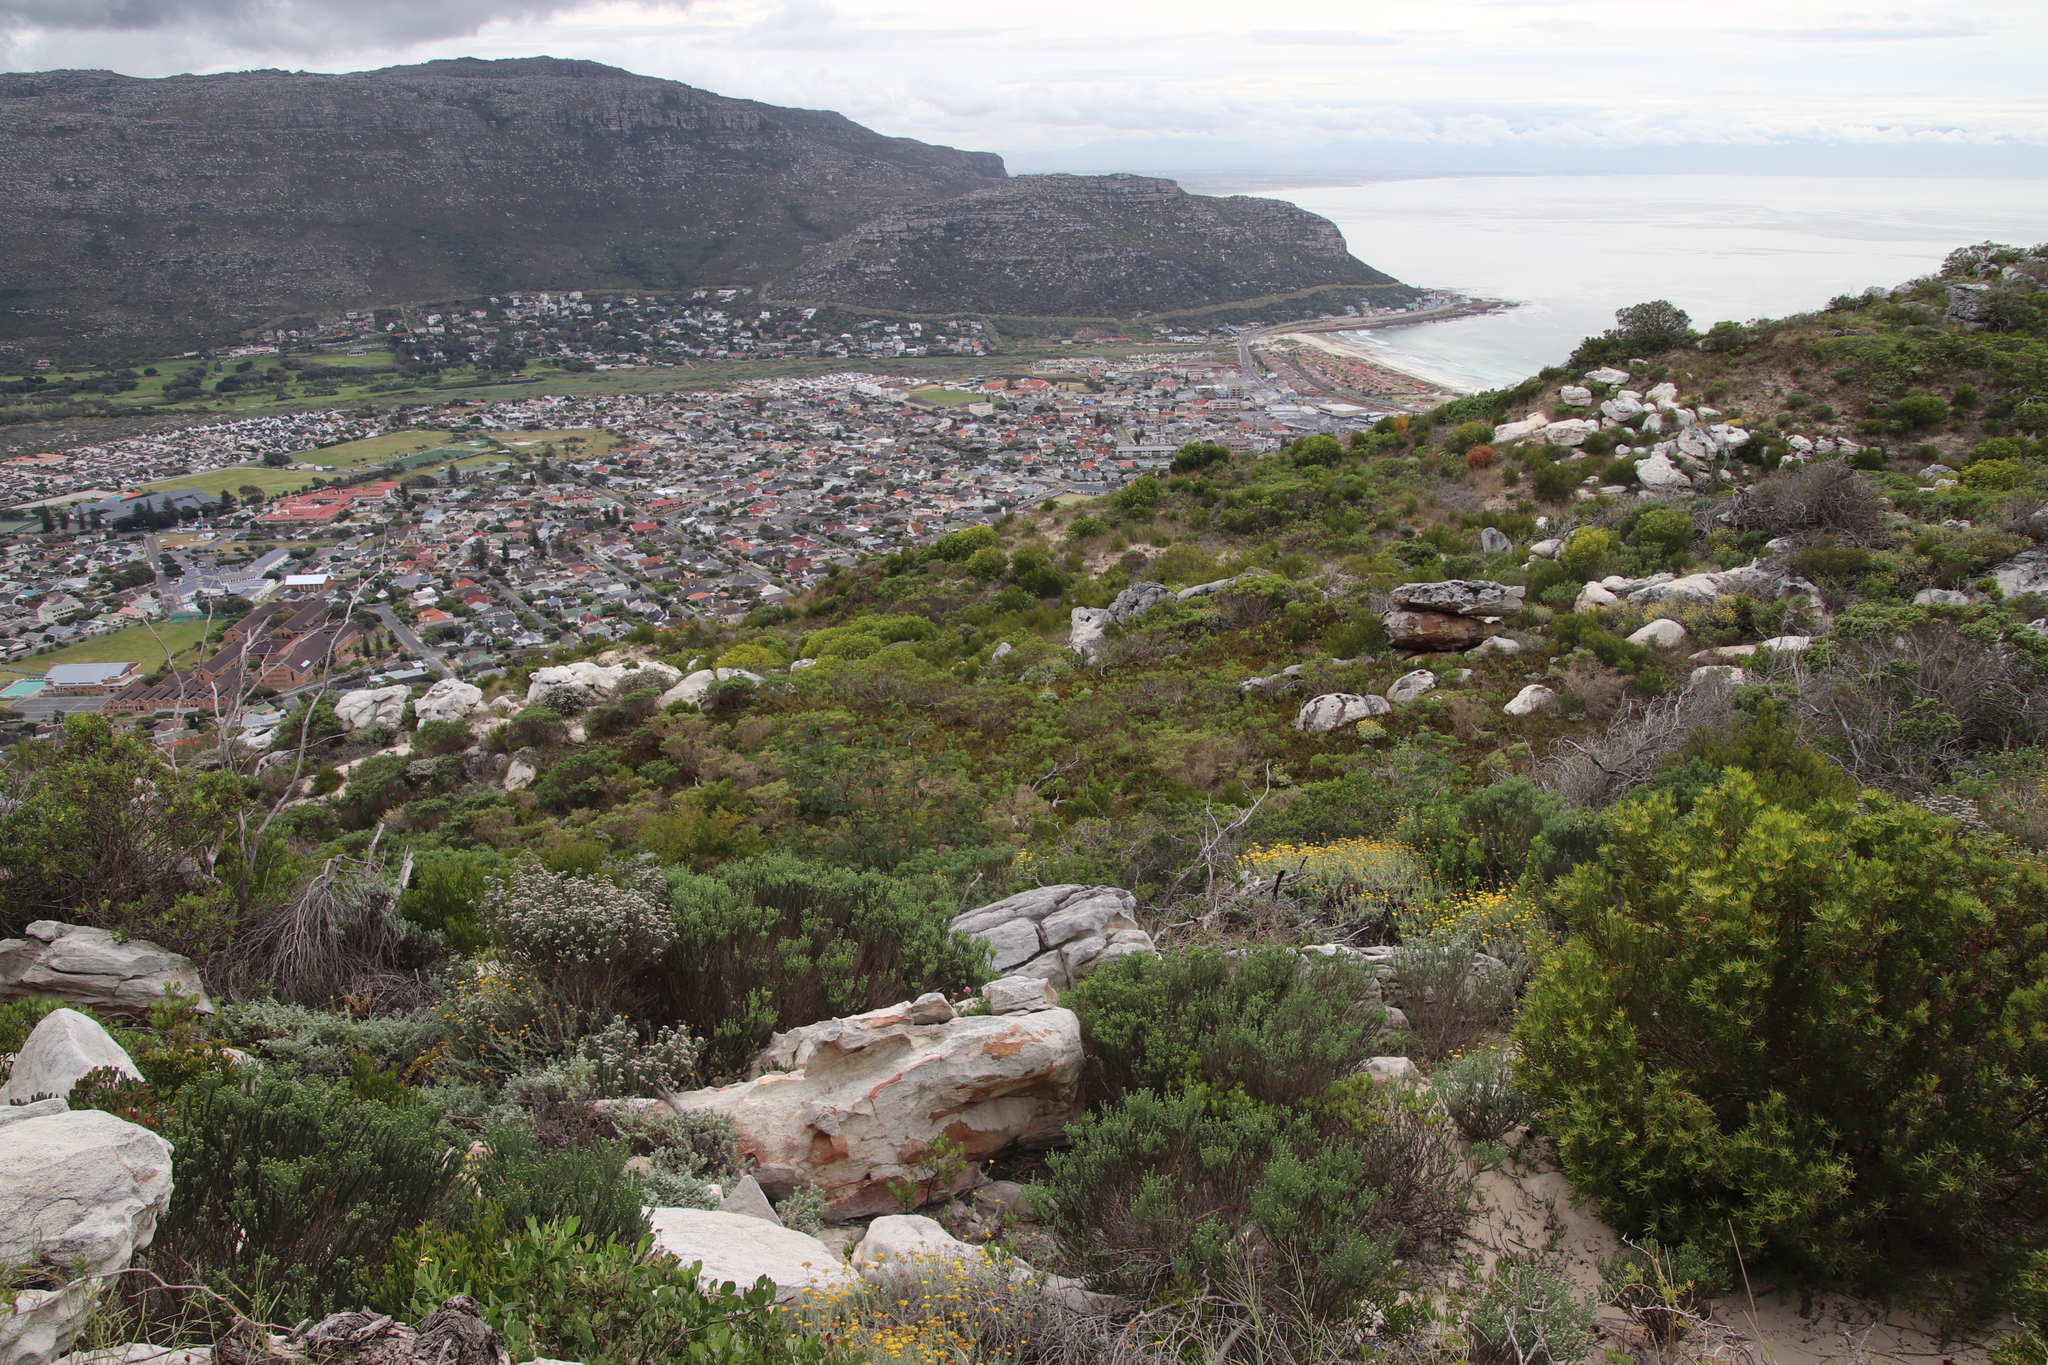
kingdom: Plantae
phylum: Tracheophyta
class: Magnoliopsida
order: Fabales
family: Fabaceae
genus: Paraserianthes
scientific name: Paraserianthes lophantha
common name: Plume albizia
